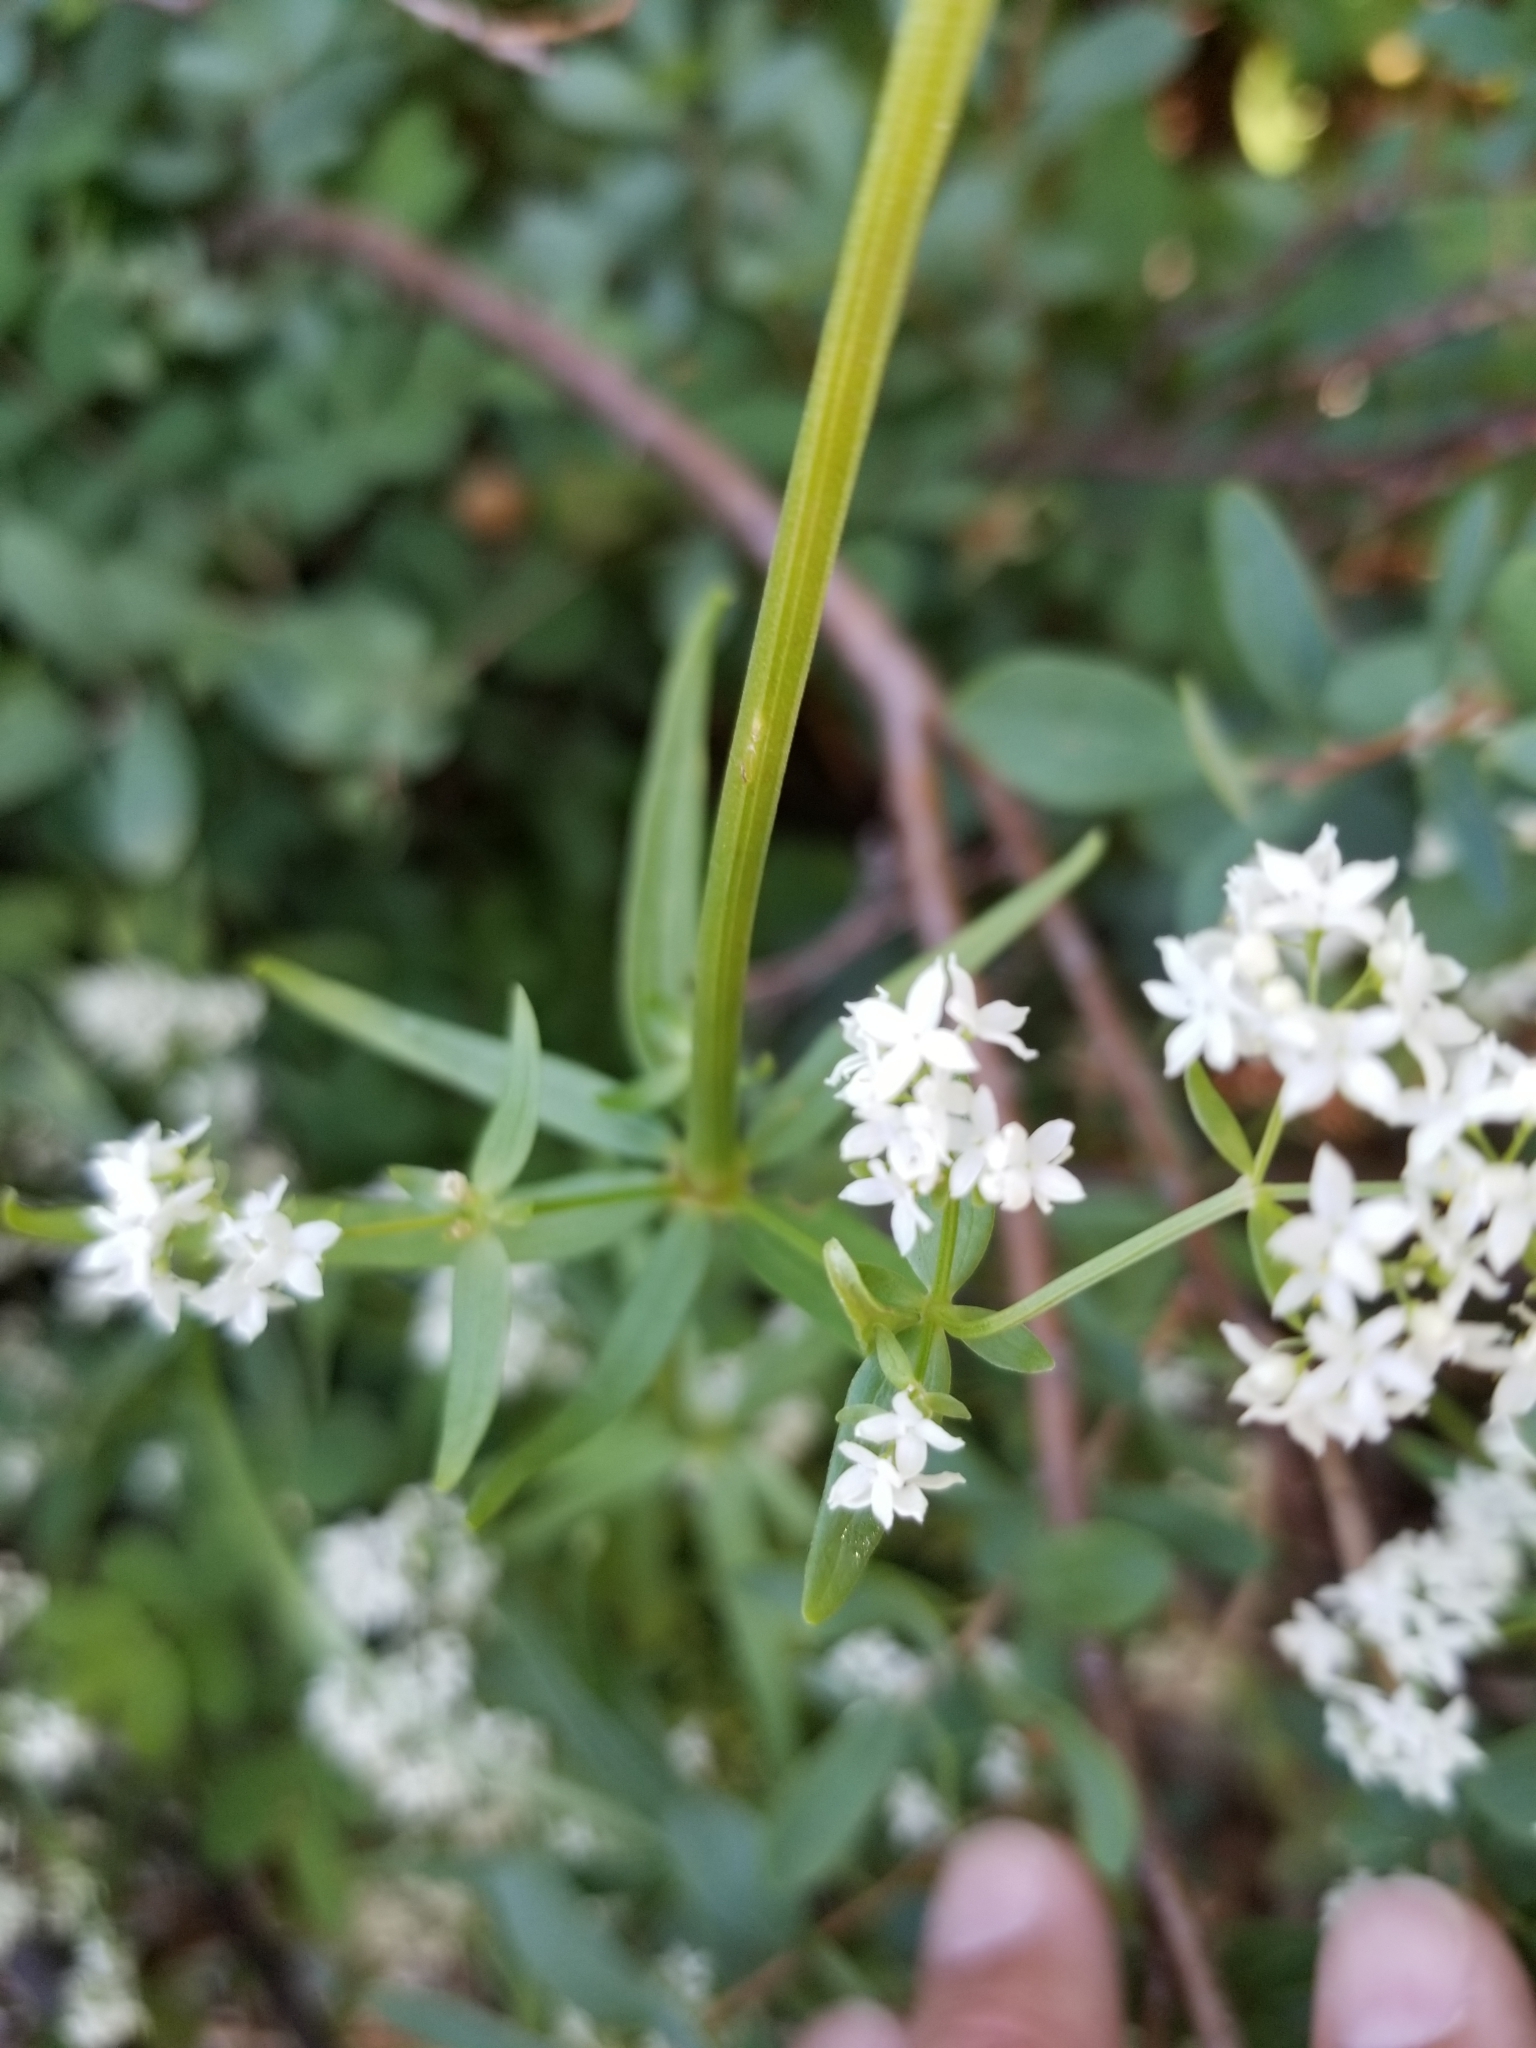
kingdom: Plantae
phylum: Tracheophyta
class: Magnoliopsida
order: Gentianales
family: Rubiaceae
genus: Galium
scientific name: Galium boreale
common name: Northern bedstraw
